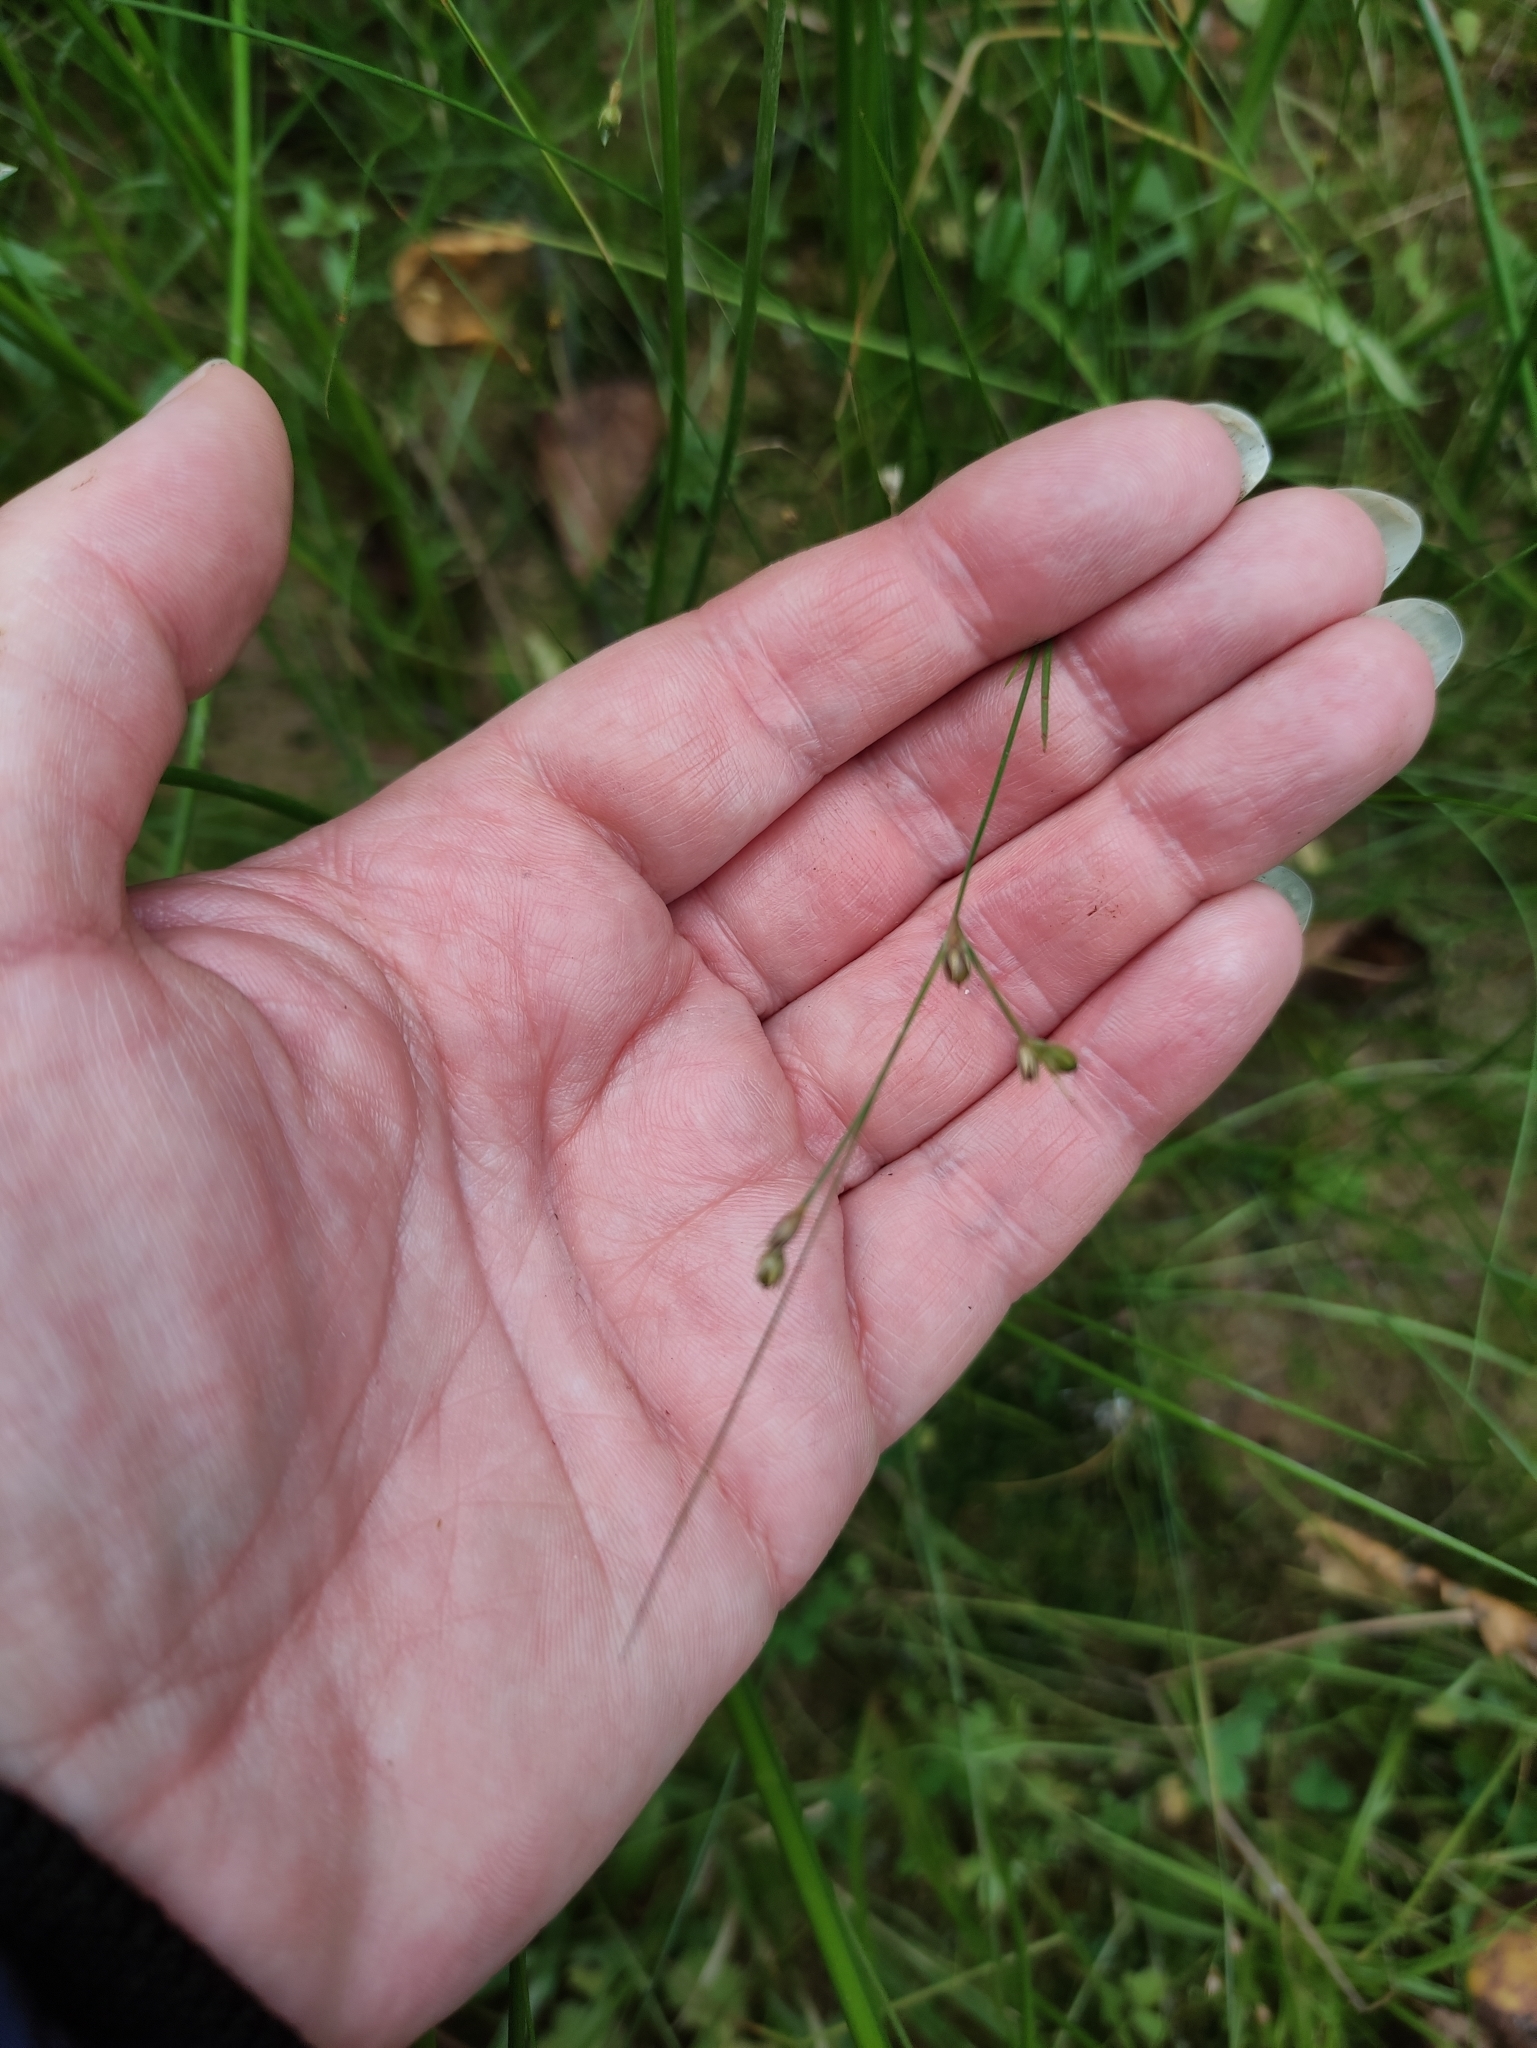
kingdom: Plantae
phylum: Tracheophyta
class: Liliopsida
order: Poales
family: Juncaceae
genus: Juncus
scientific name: Juncus tenuis
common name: Slender rush
